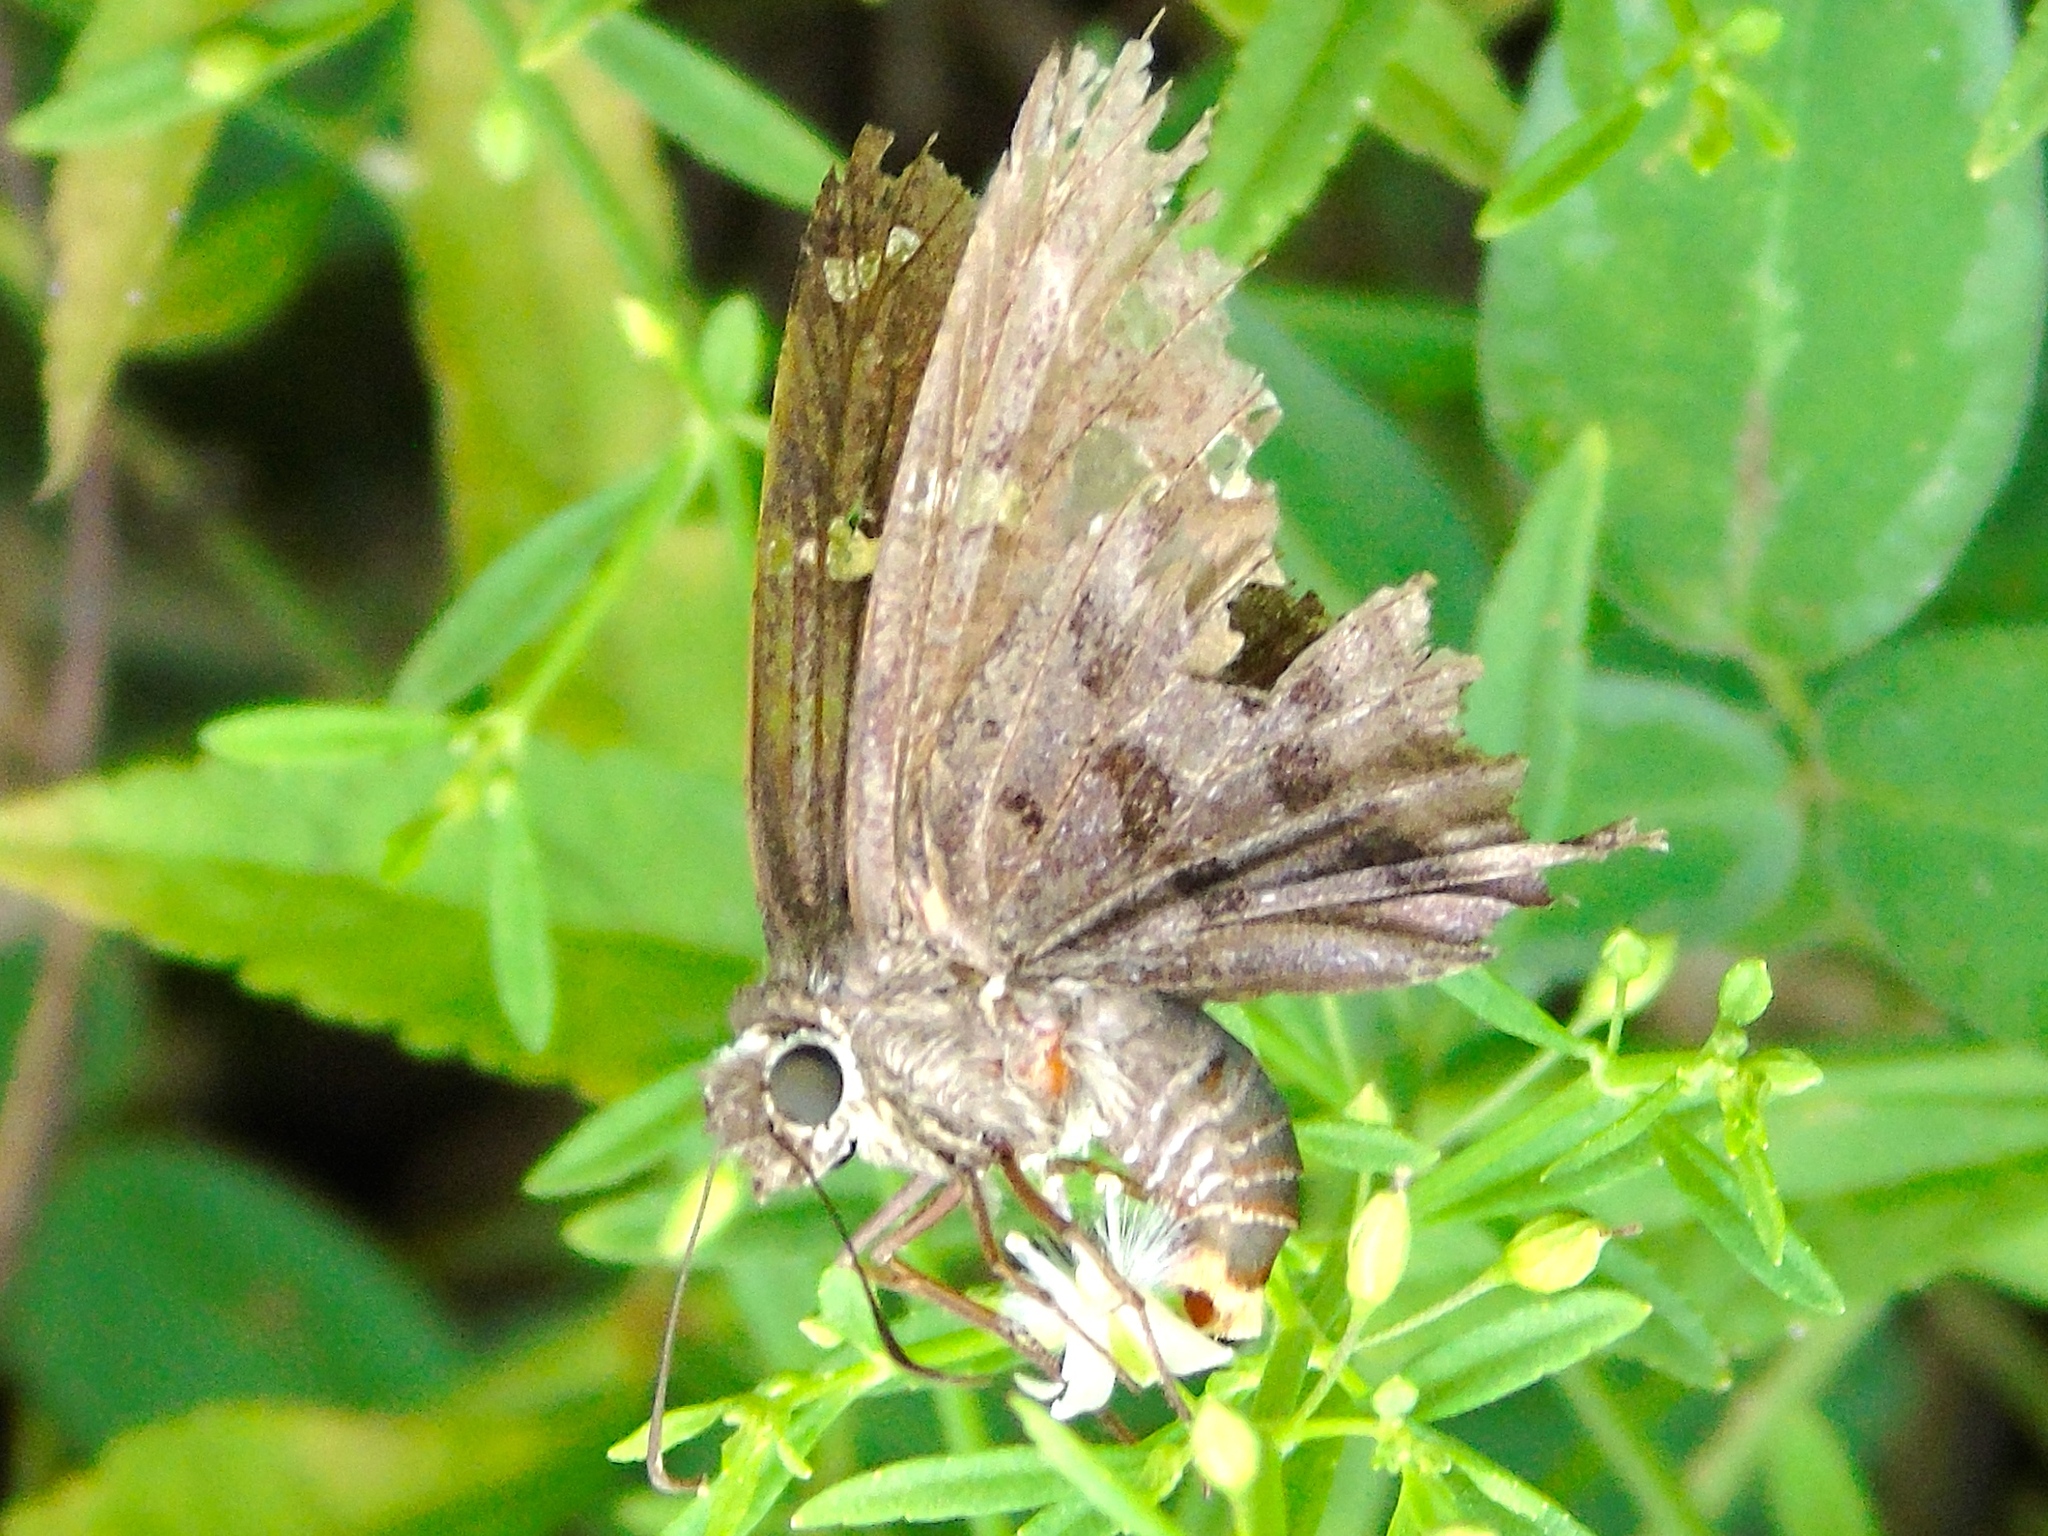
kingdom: Animalia
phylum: Arthropoda
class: Insecta
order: Lepidoptera
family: Hesperiidae
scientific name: Hesperiidae
